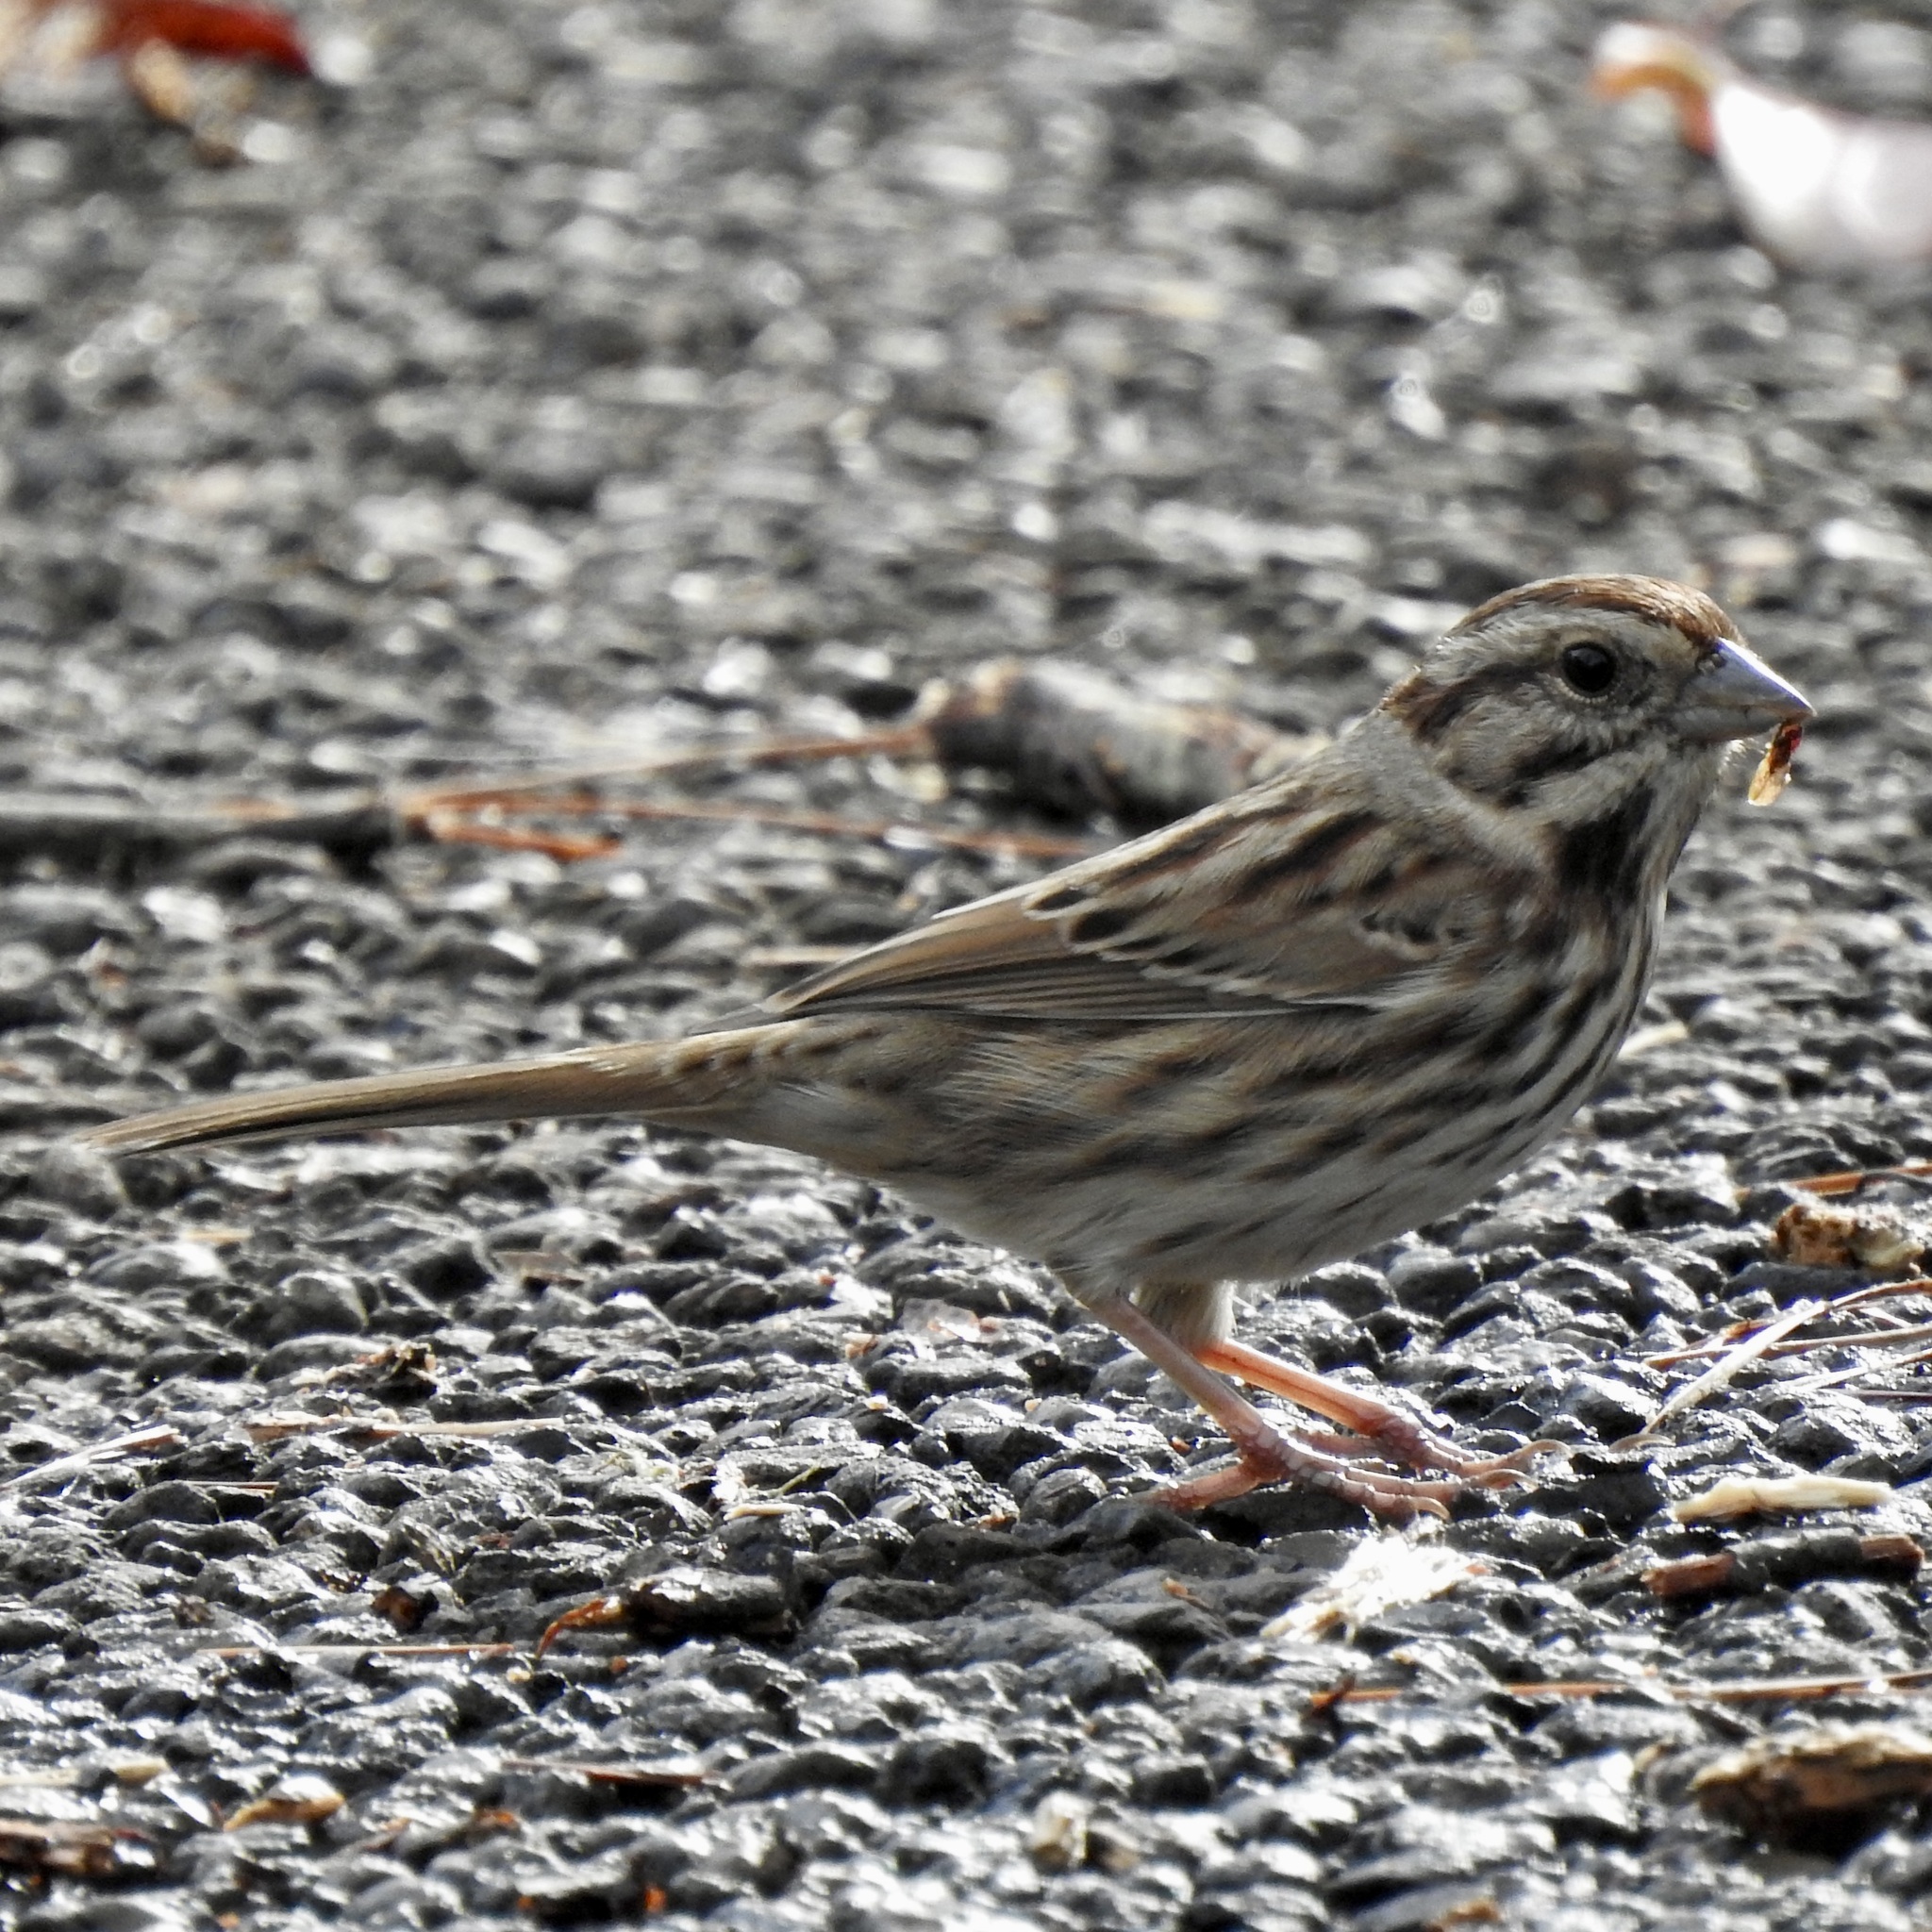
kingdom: Animalia
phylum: Chordata
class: Aves
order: Passeriformes
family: Passerellidae
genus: Melospiza
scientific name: Melospiza melodia
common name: Song sparrow
